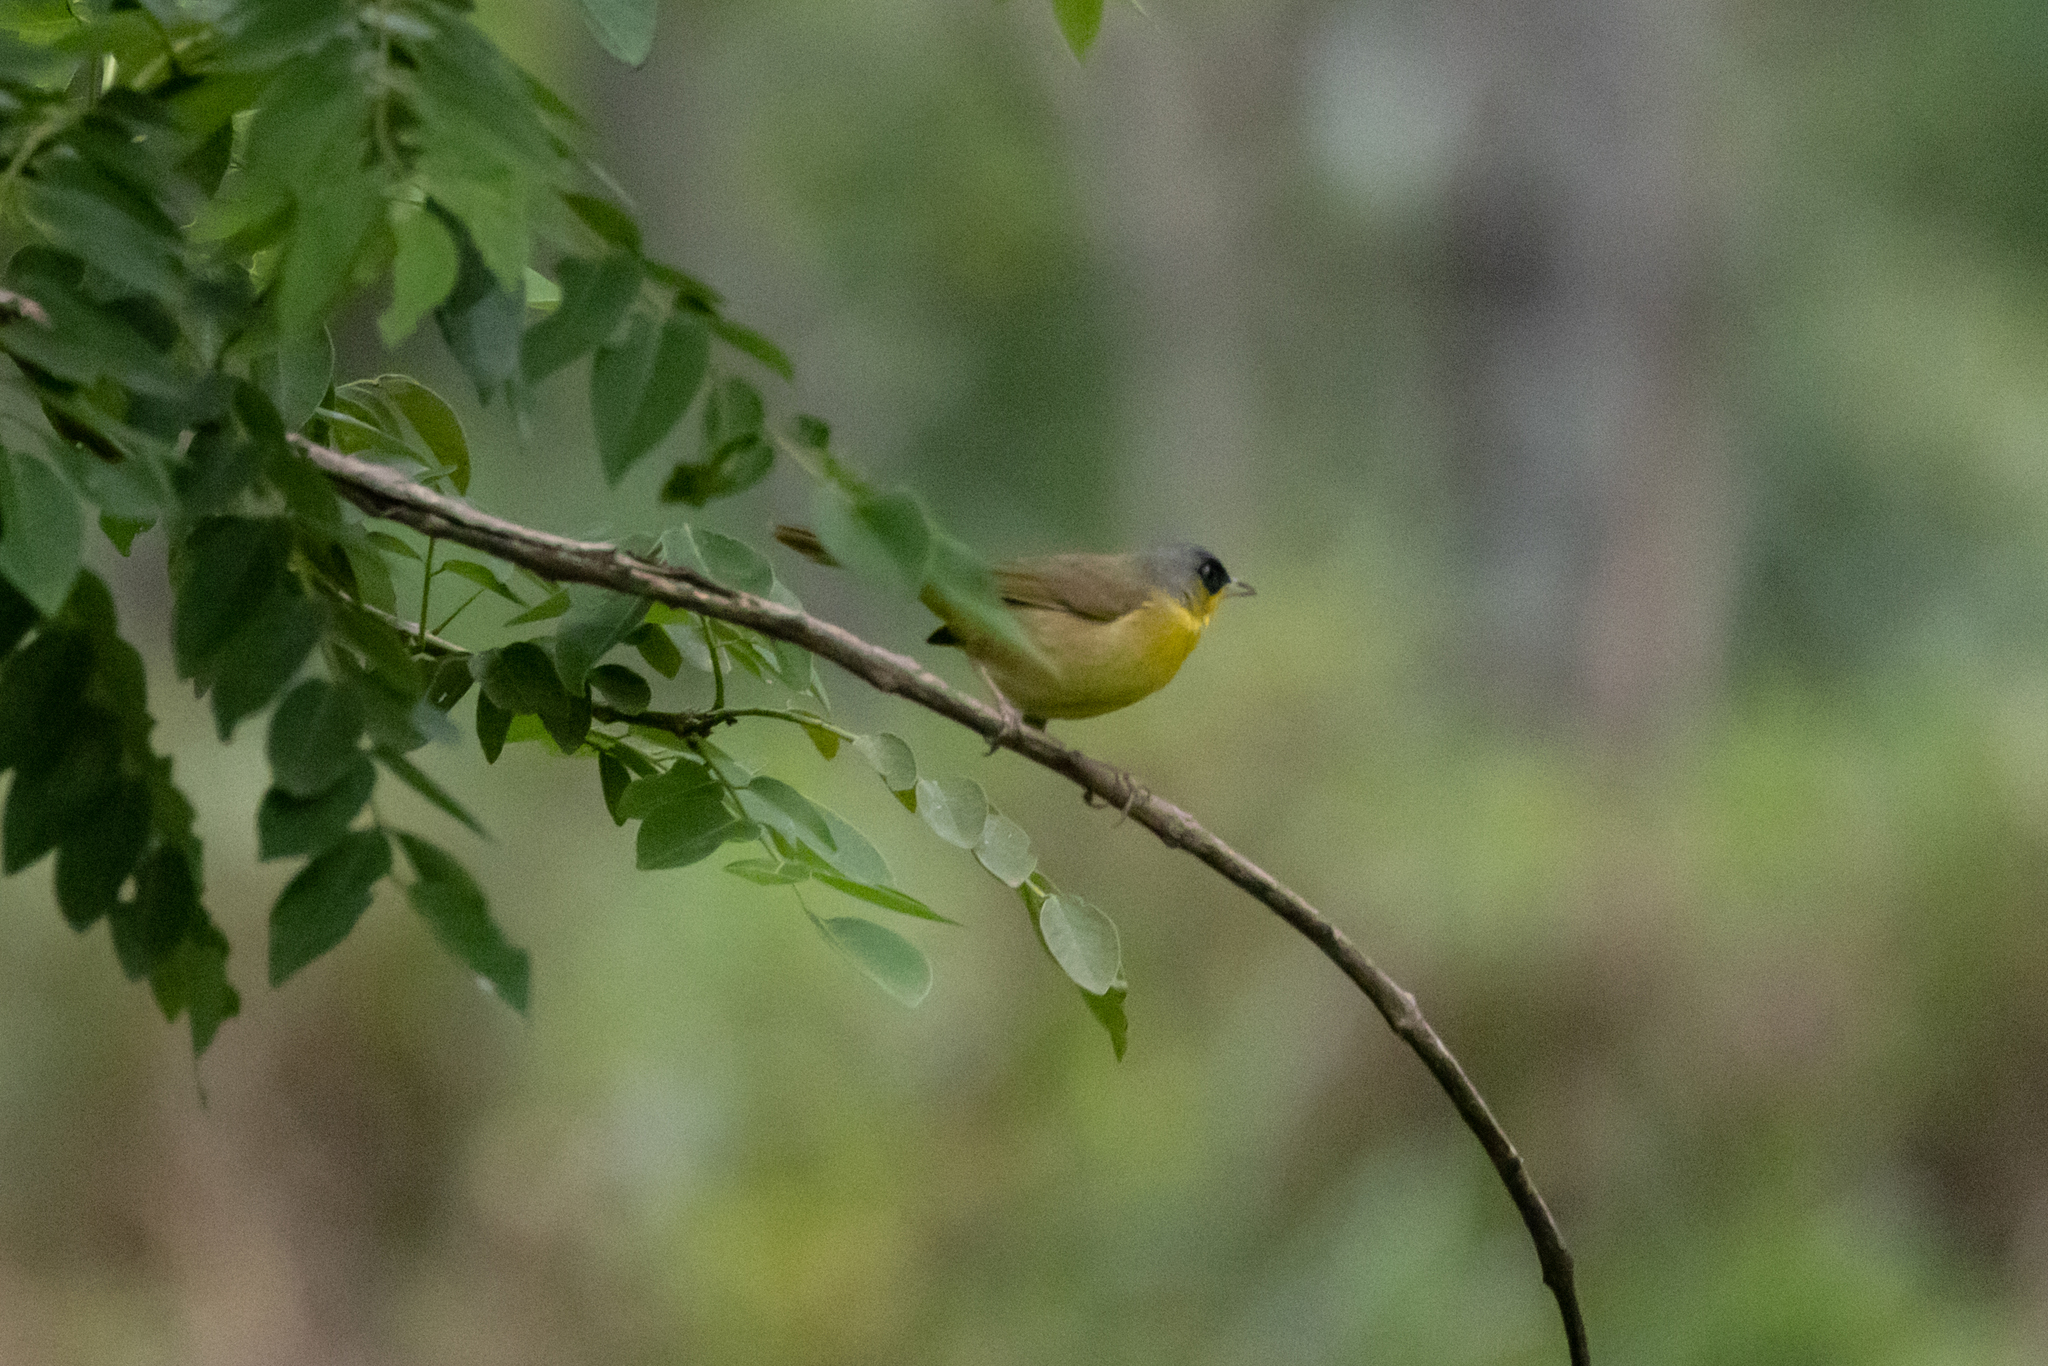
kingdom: Animalia
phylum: Chordata
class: Aves
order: Passeriformes
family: Parulidae
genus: Geothlypis
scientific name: Geothlypis poliocephala
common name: Gray-crowned yellowthroat
